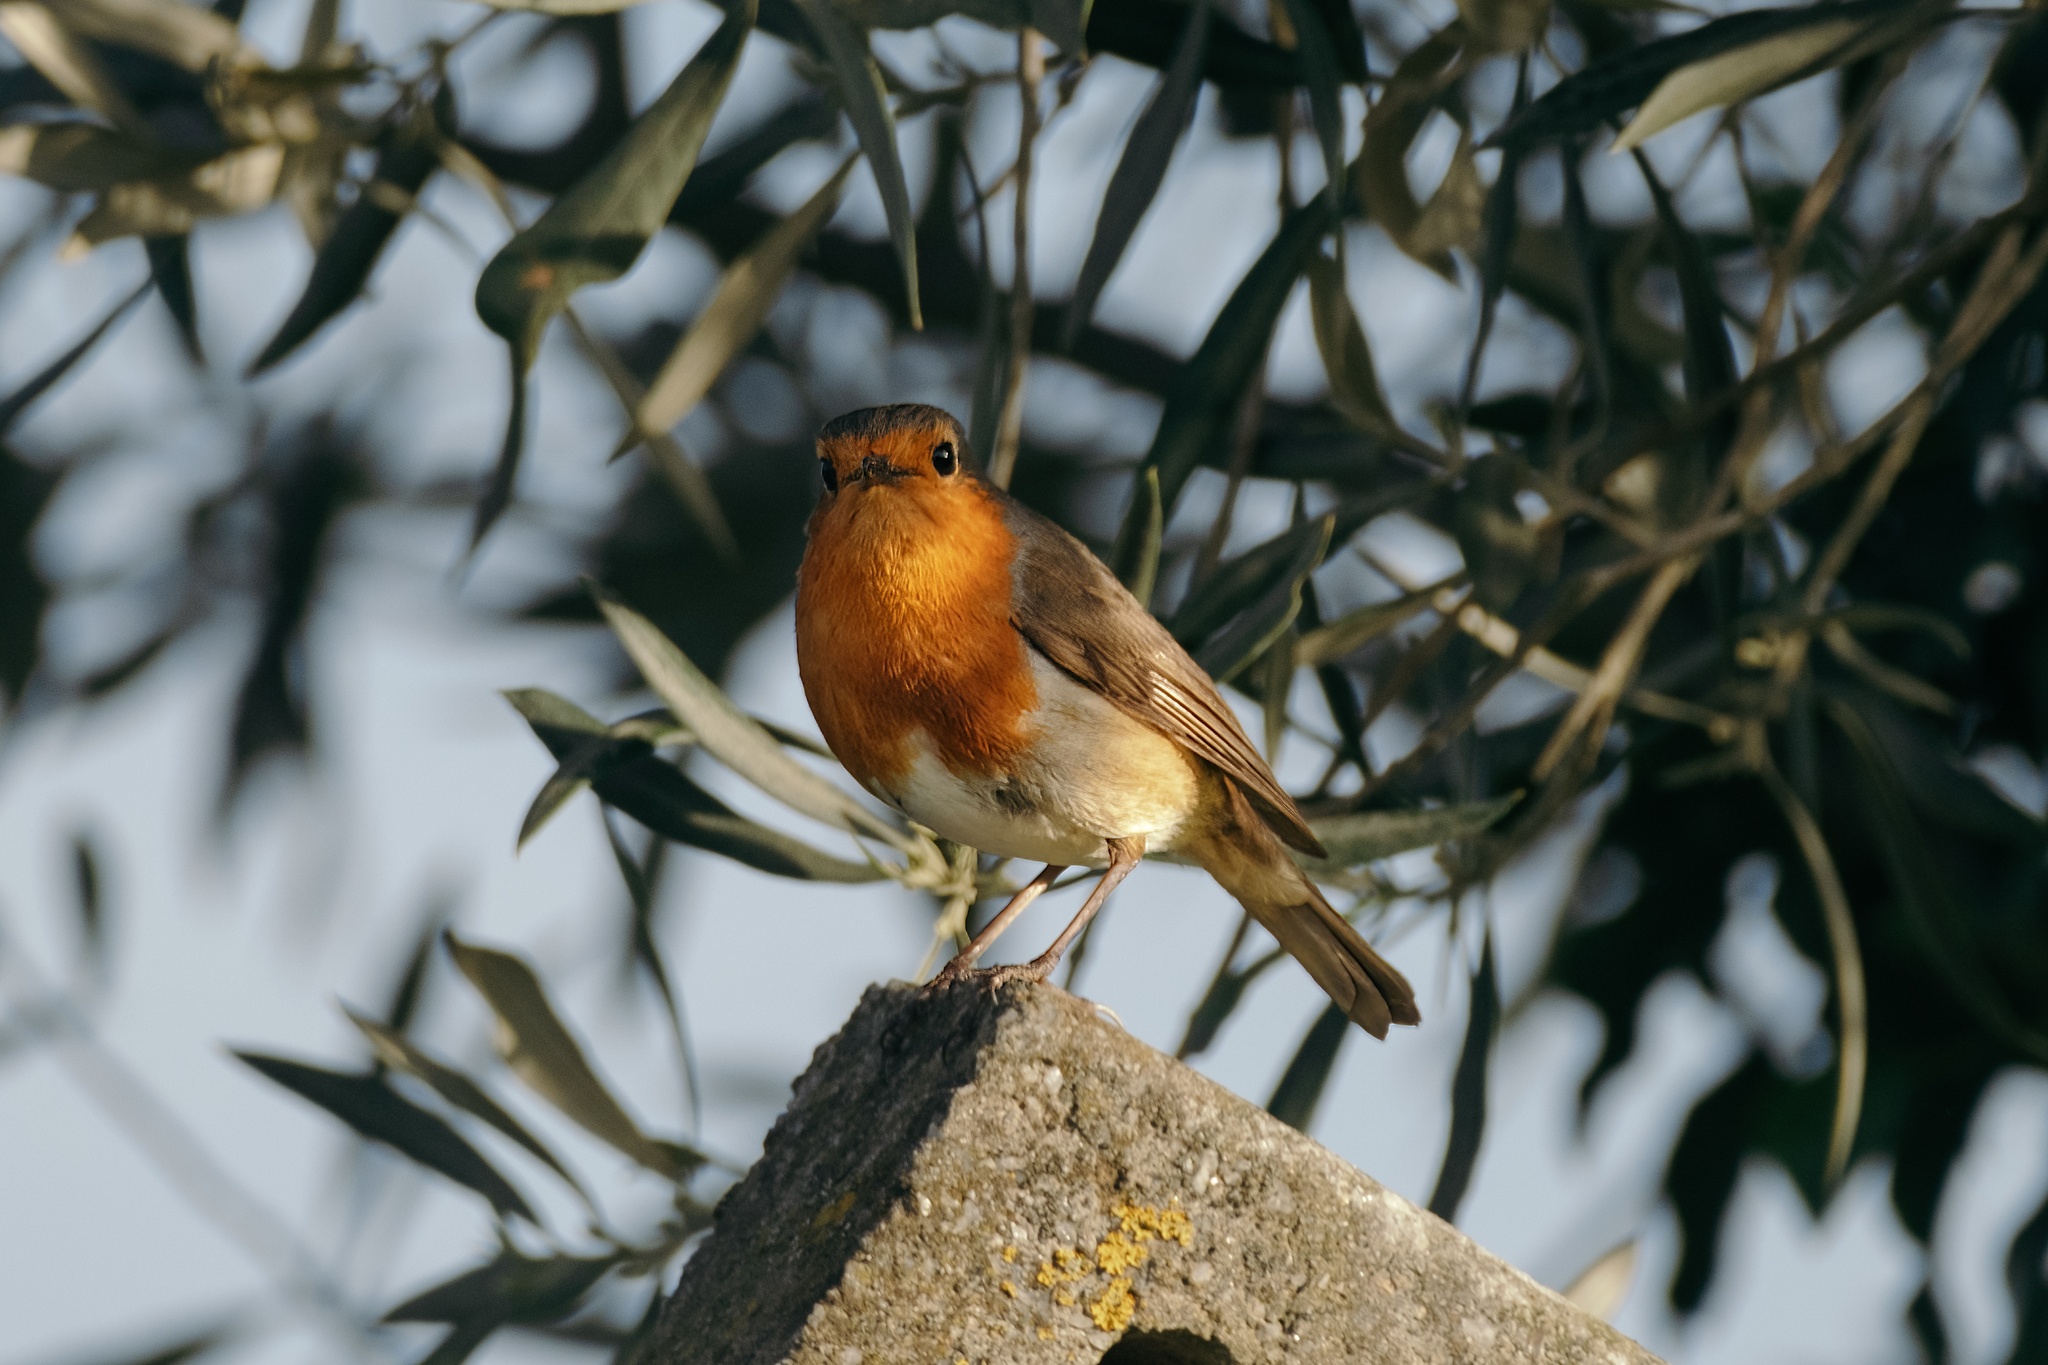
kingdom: Animalia
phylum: Chordata
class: Aves
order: Passeriformes
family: Muscicapidae
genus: Erithacus
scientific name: Erithacus rubecula
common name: European robin
